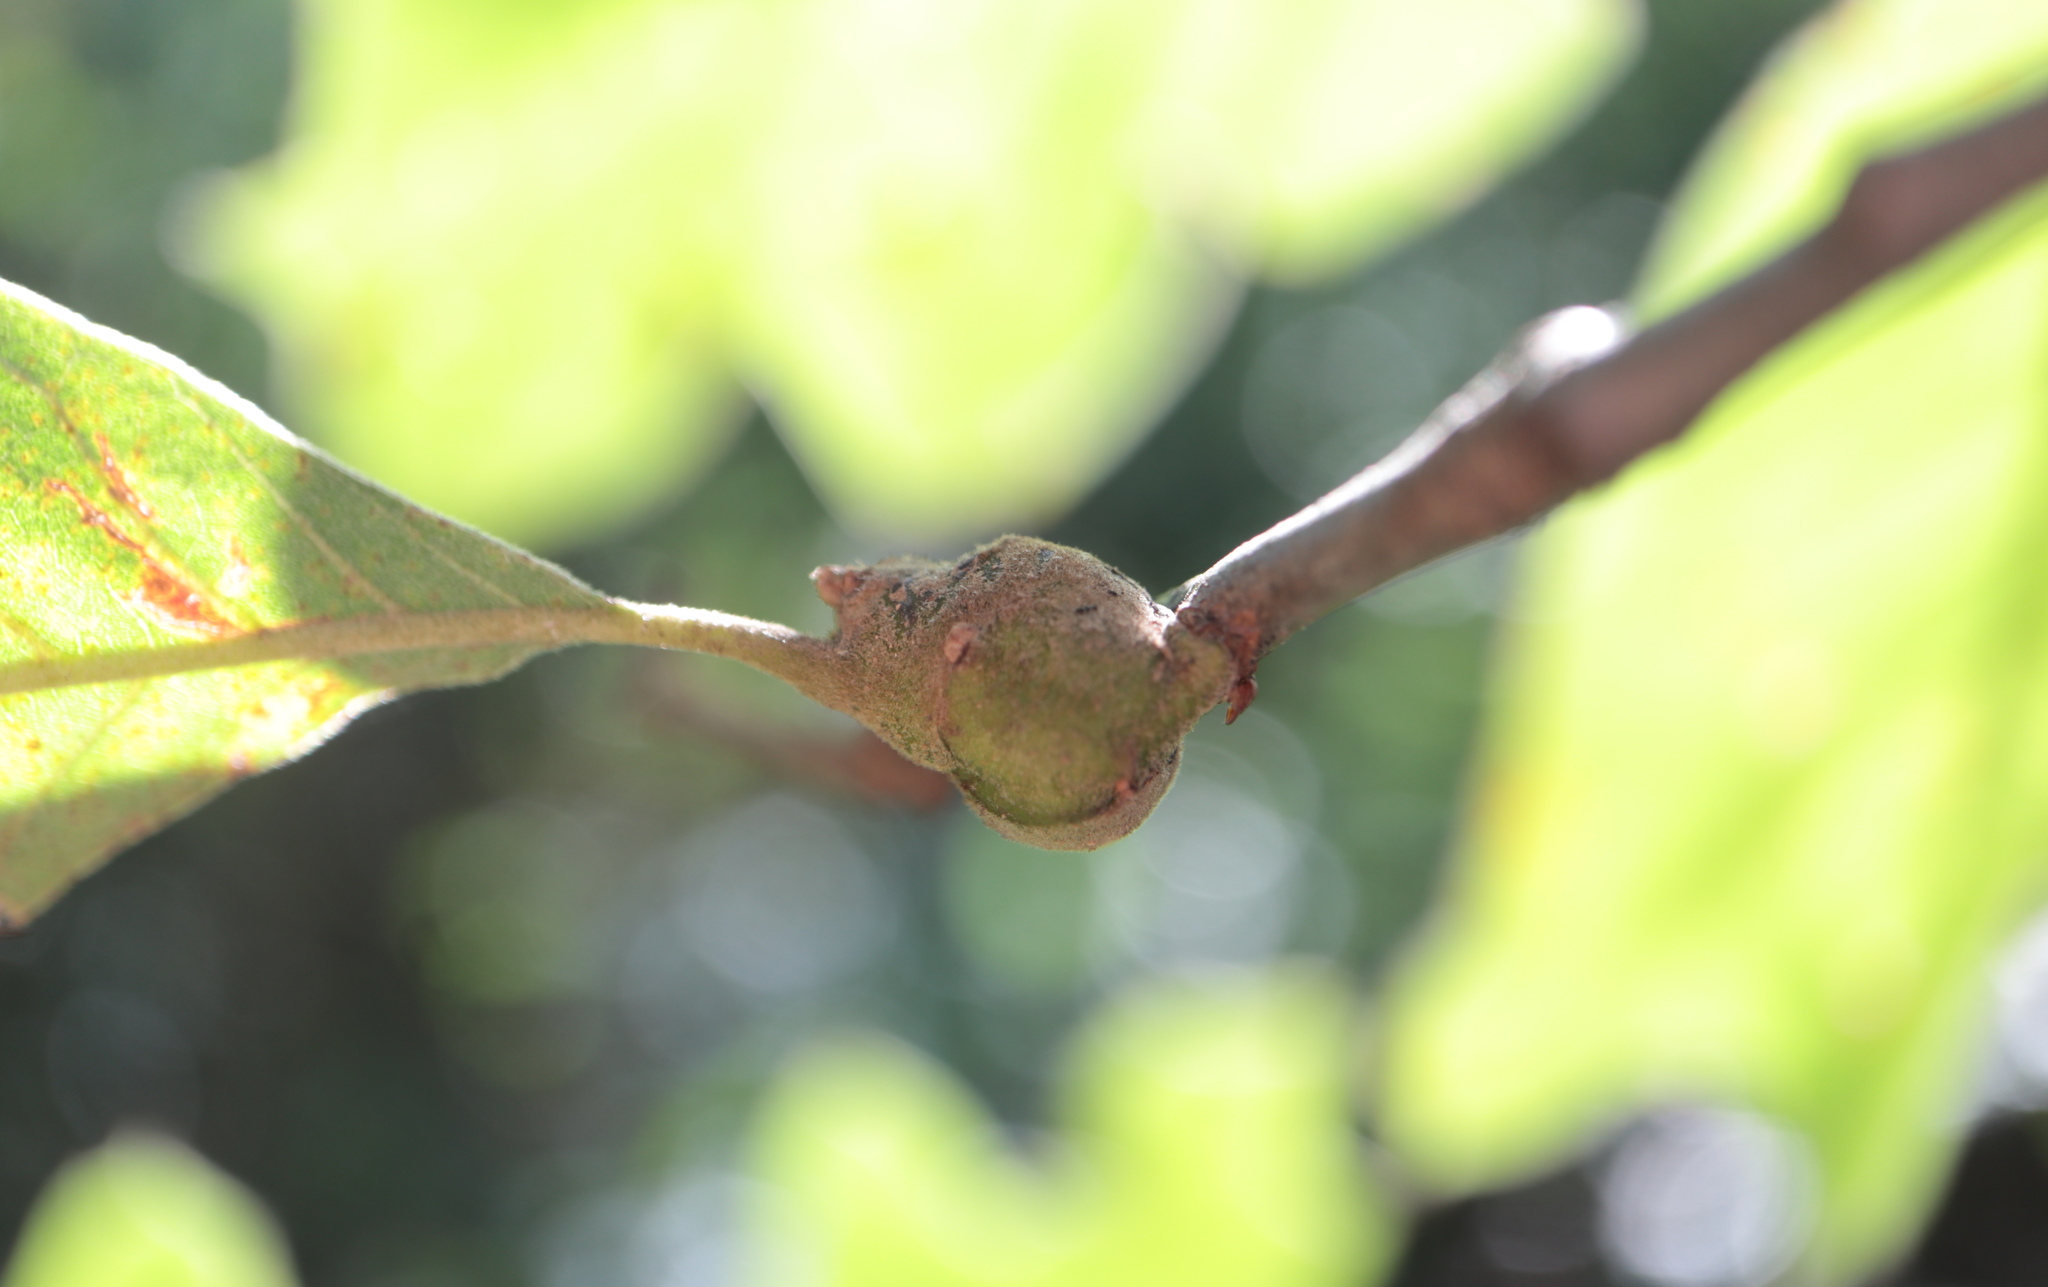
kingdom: Animalia
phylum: Arthropoda
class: Insecta
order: Hymenoptera
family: Cynipidae
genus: Zapatella
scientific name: Zapatella quercusphellos
